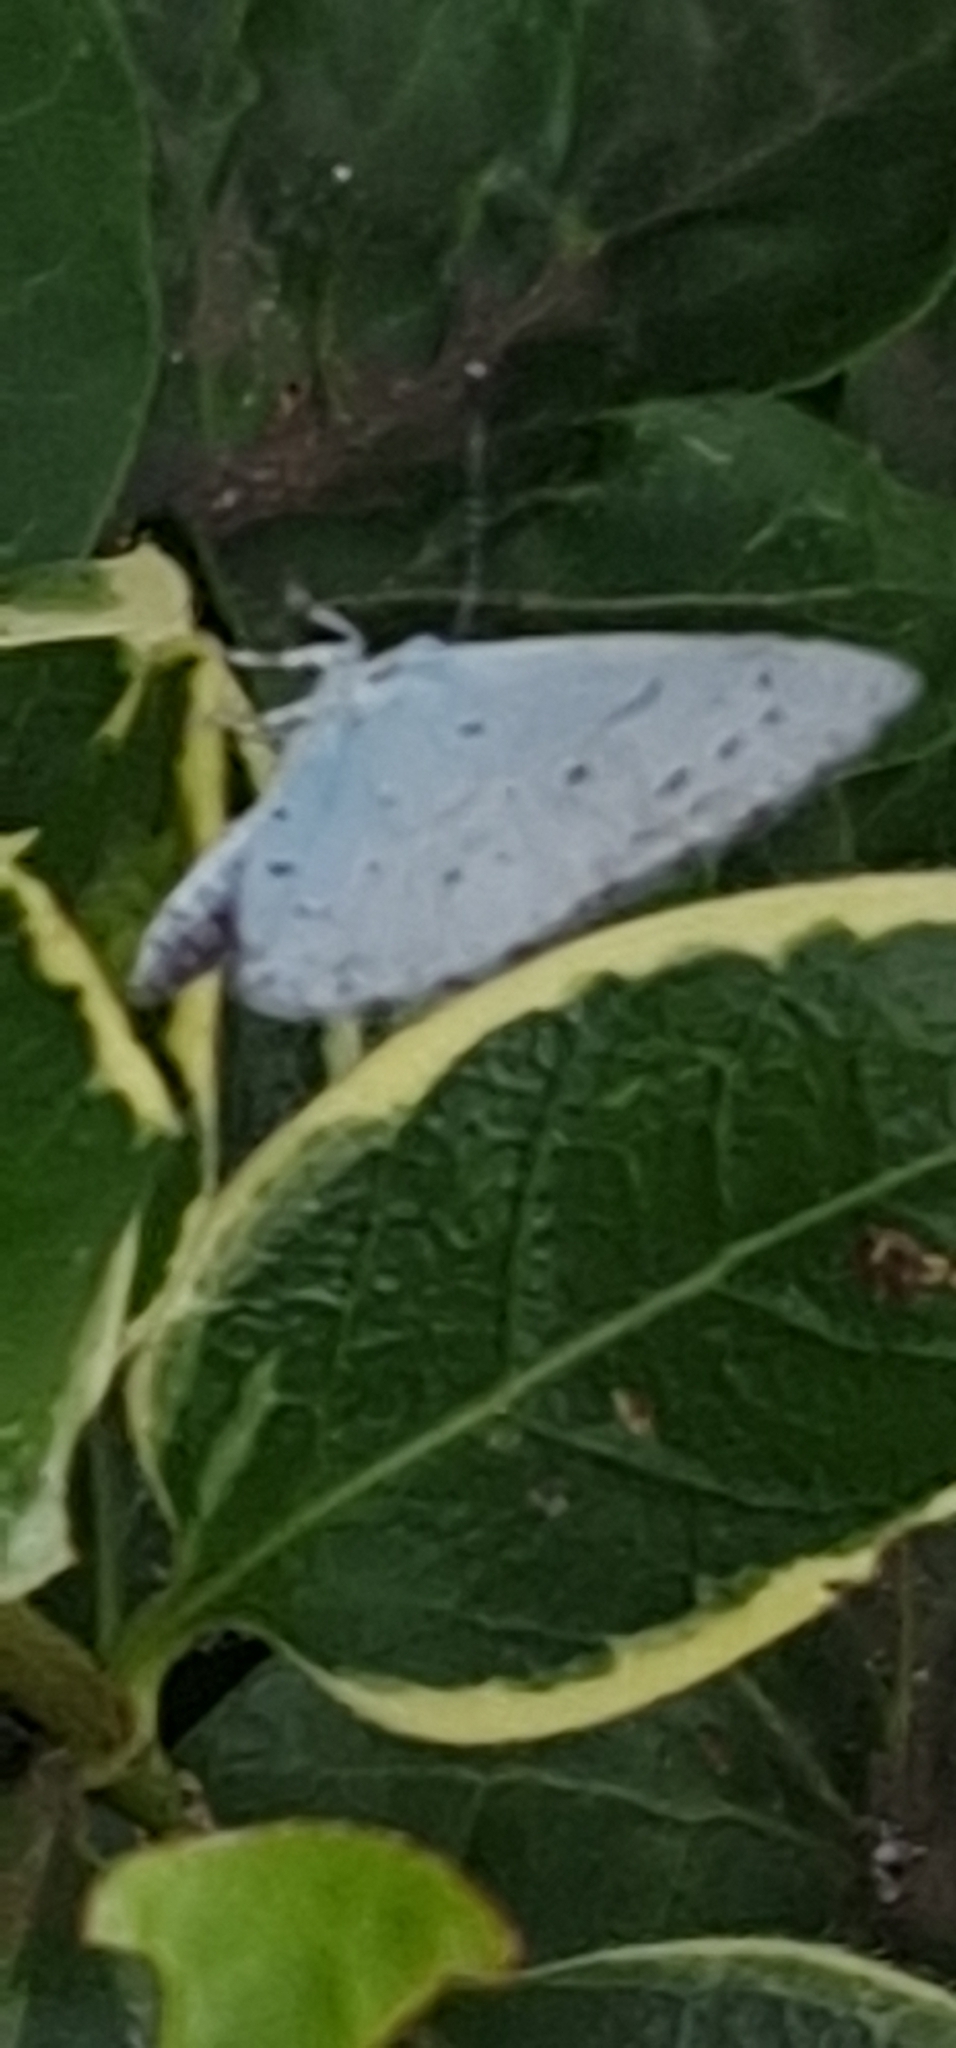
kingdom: Animalia
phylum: Arthropoda
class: Insecta
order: Lepidoptera
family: Lycaenidae
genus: Celastrina
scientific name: Celastrina argiolus
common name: Holly blue
